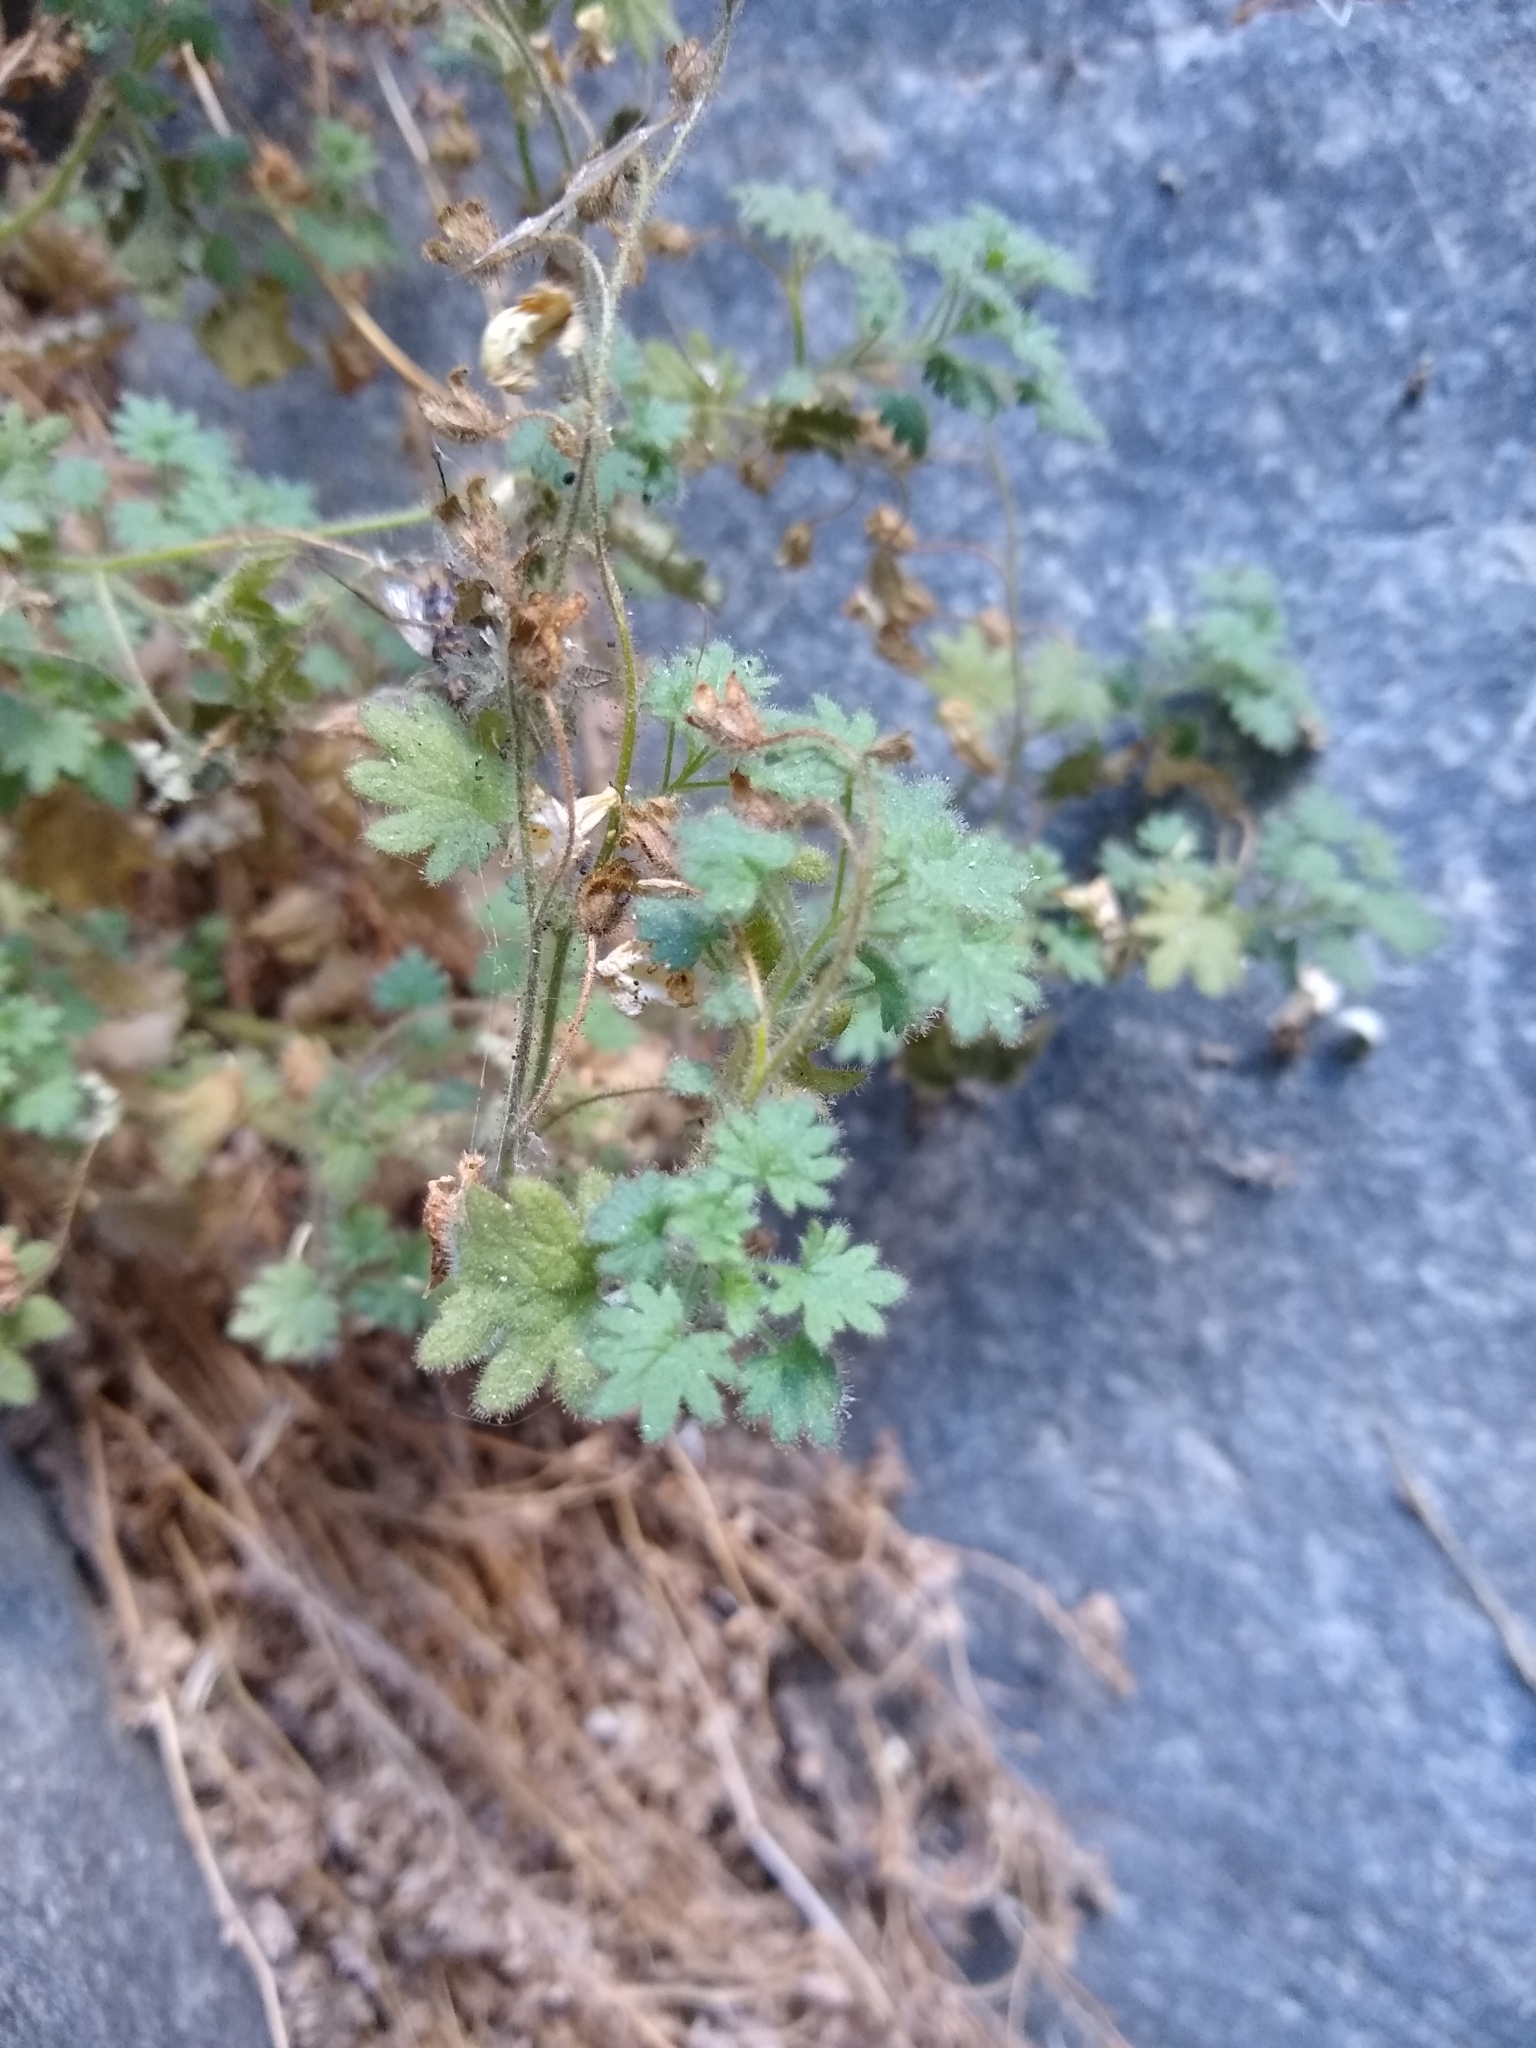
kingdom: Plantae
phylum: Tracheophyta
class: Magnoliopsida
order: Boraginales
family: Hydrophyllaceae
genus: Phacelia
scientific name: Phacelia perityloides
